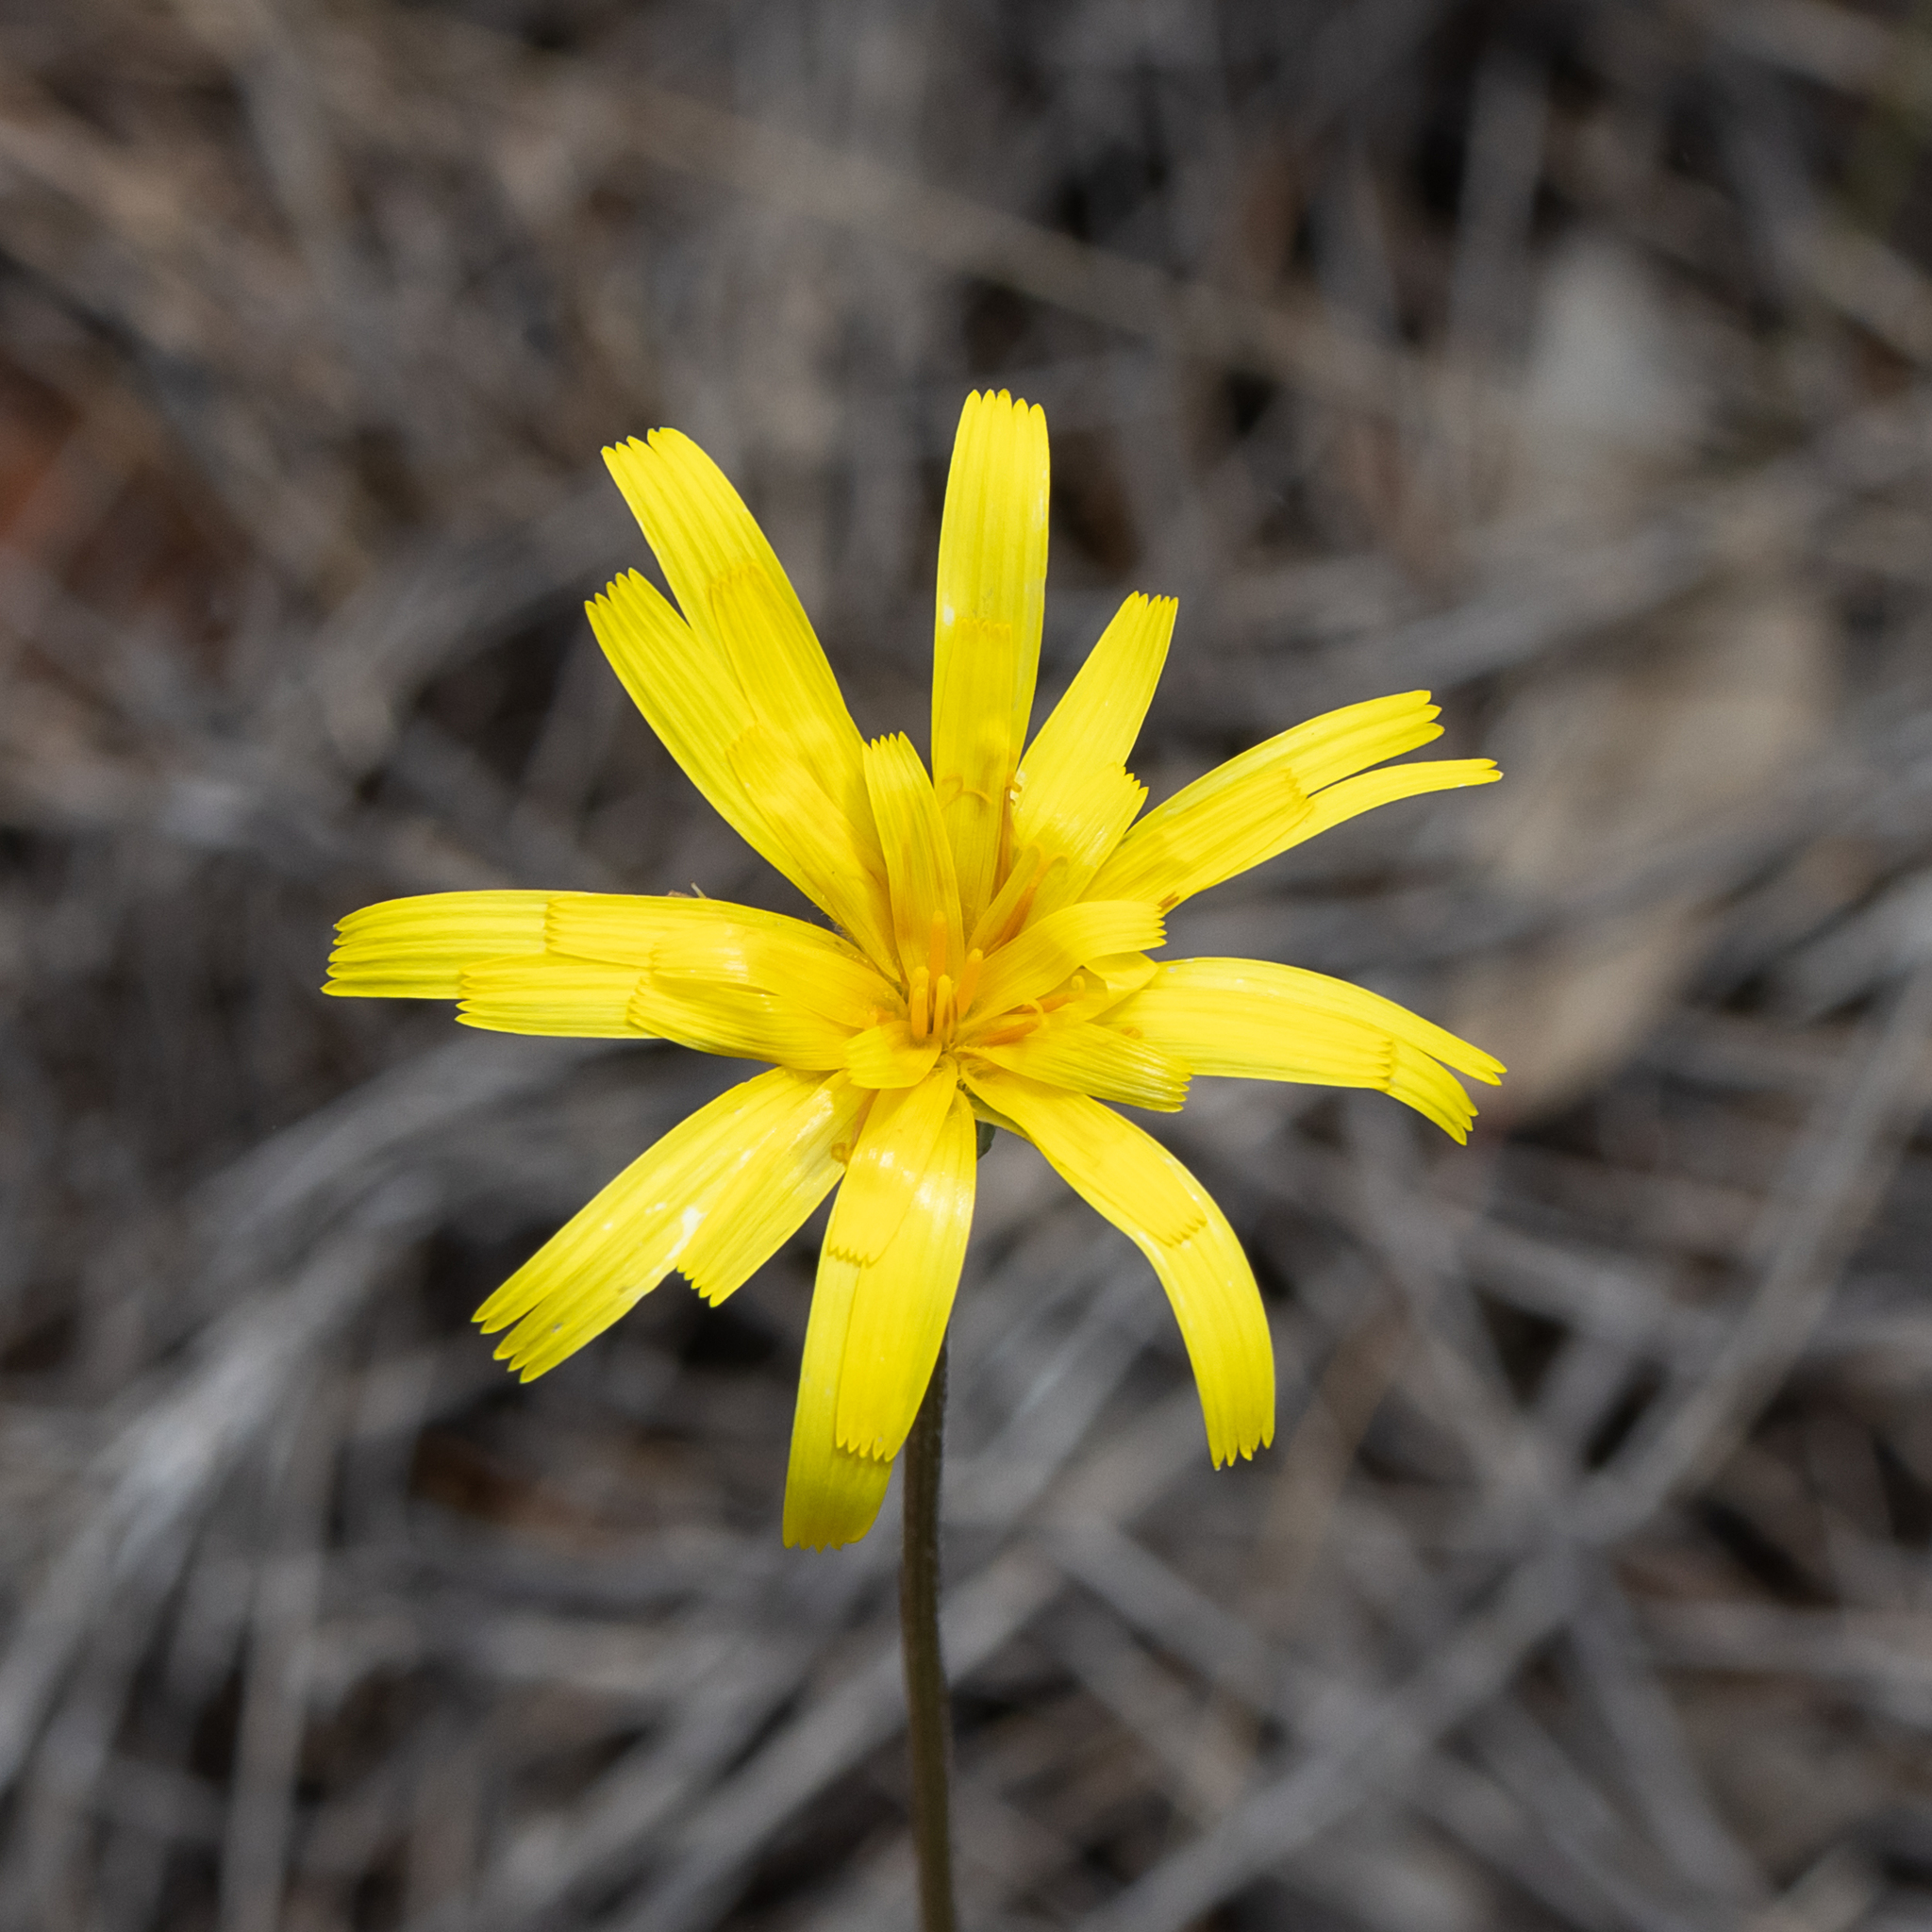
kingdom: Plantae
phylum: Tracheophyta
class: Magnoliopsida
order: Asterales
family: Asteraceae
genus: Microseris
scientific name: Microseris lanceolata
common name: Yam daisy
